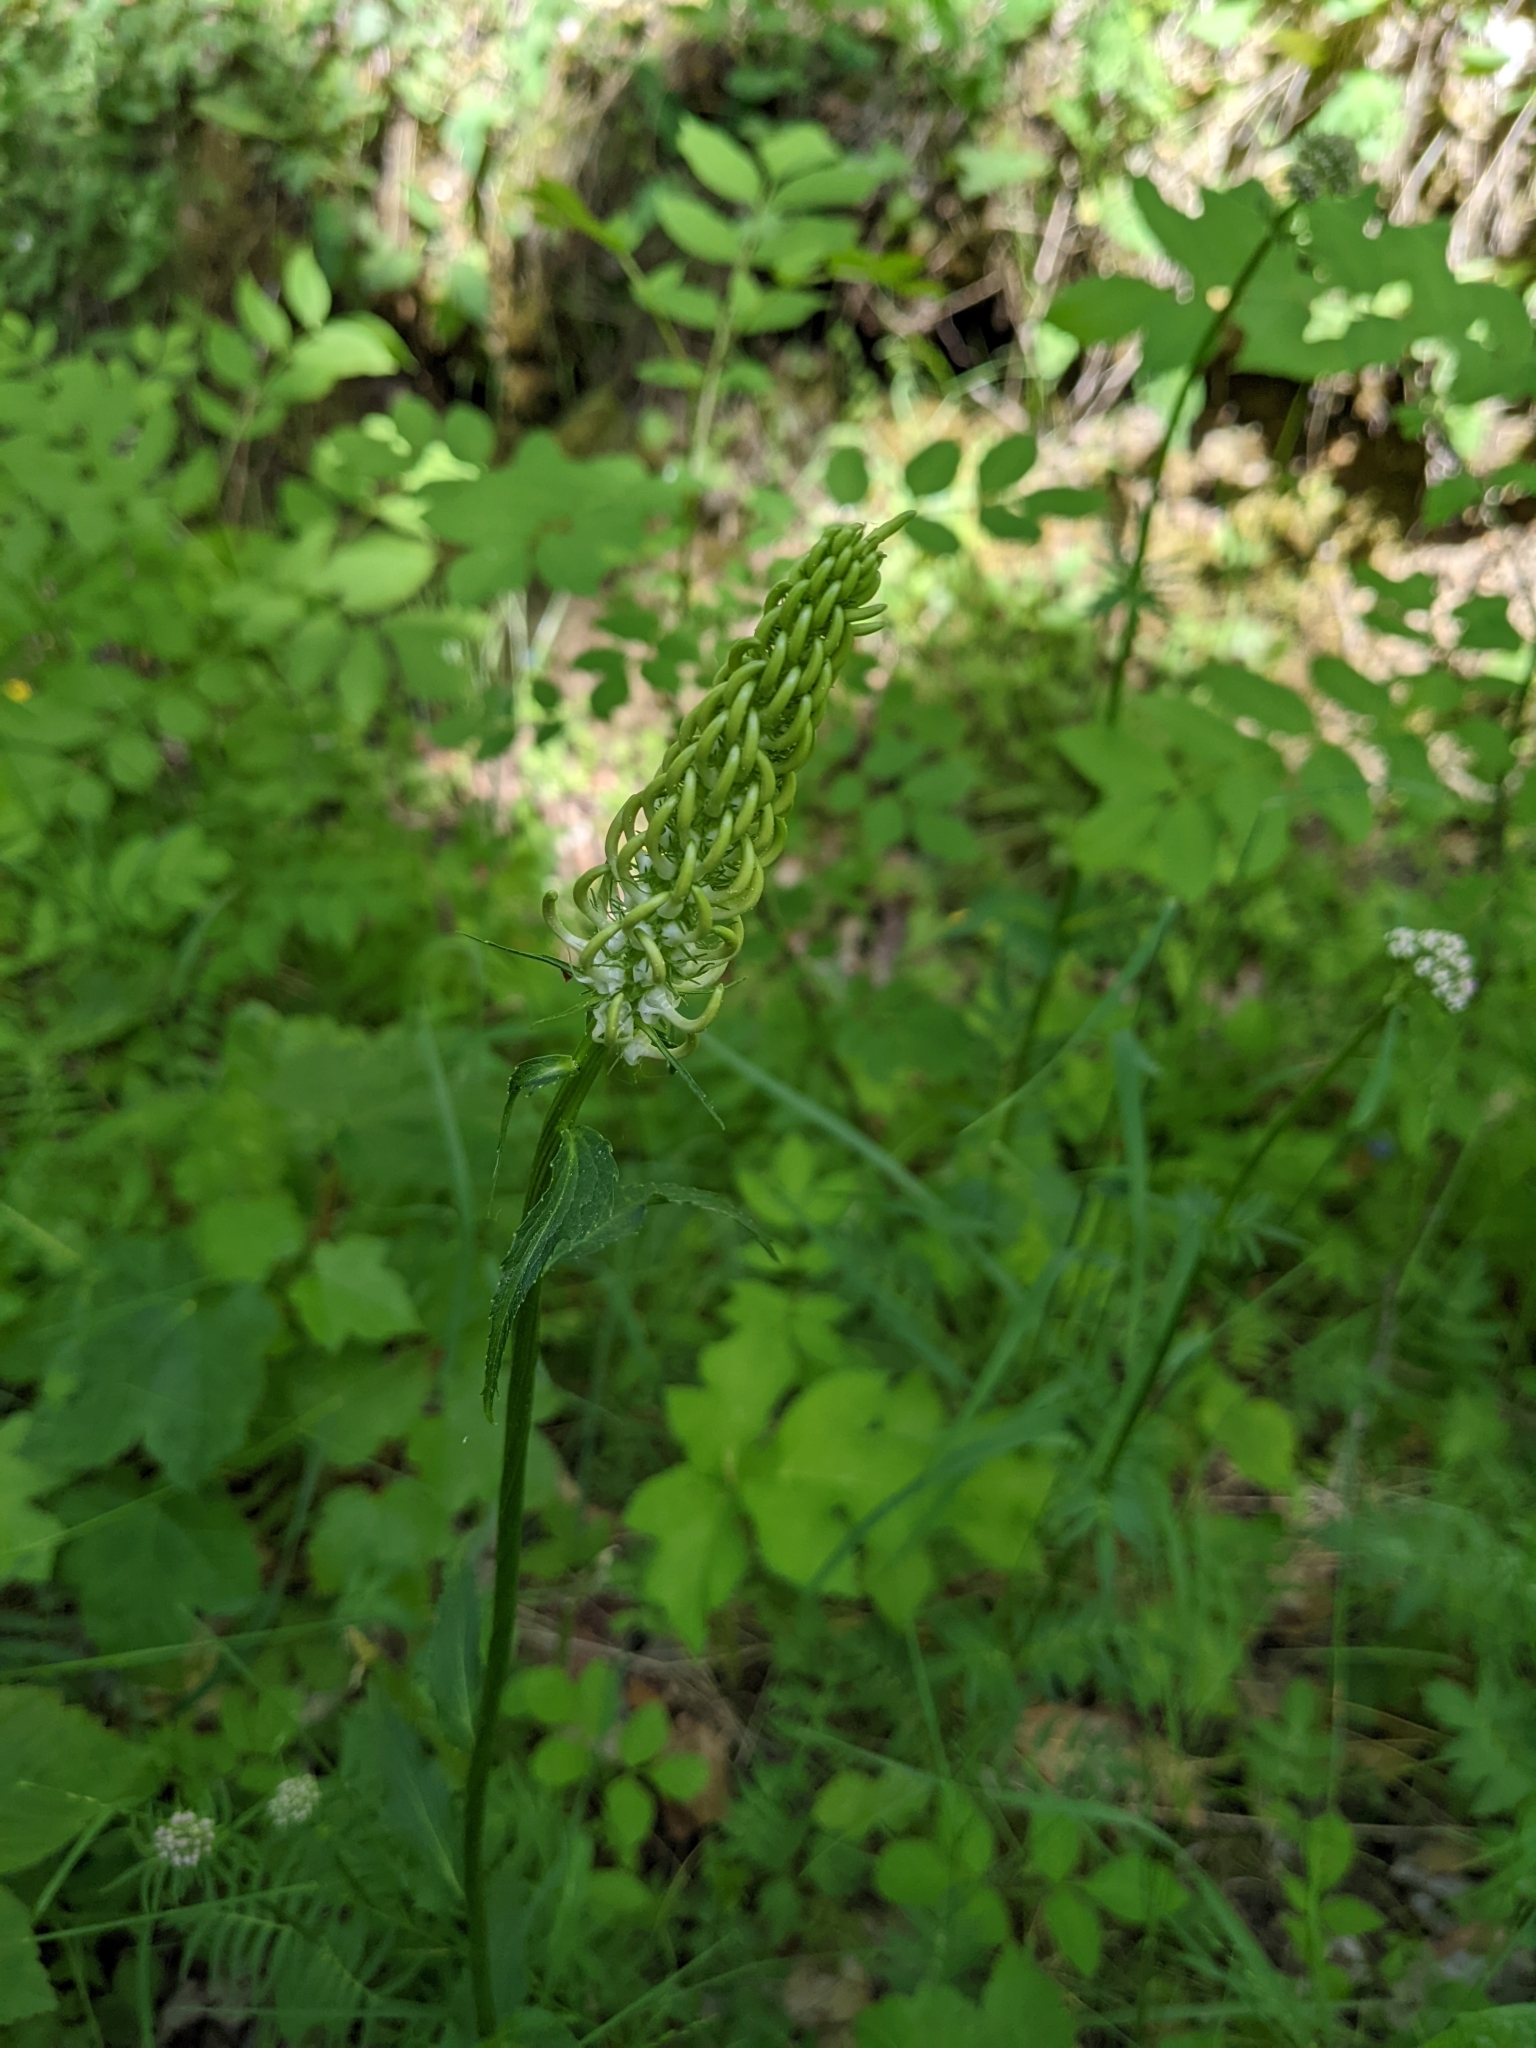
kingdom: Plantae
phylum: Tracheophyta
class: Magnoliopsida
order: Asterales
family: Campanulaceae
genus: Phyteuma
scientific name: Phyteuma spicatum
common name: Spiked rampion
